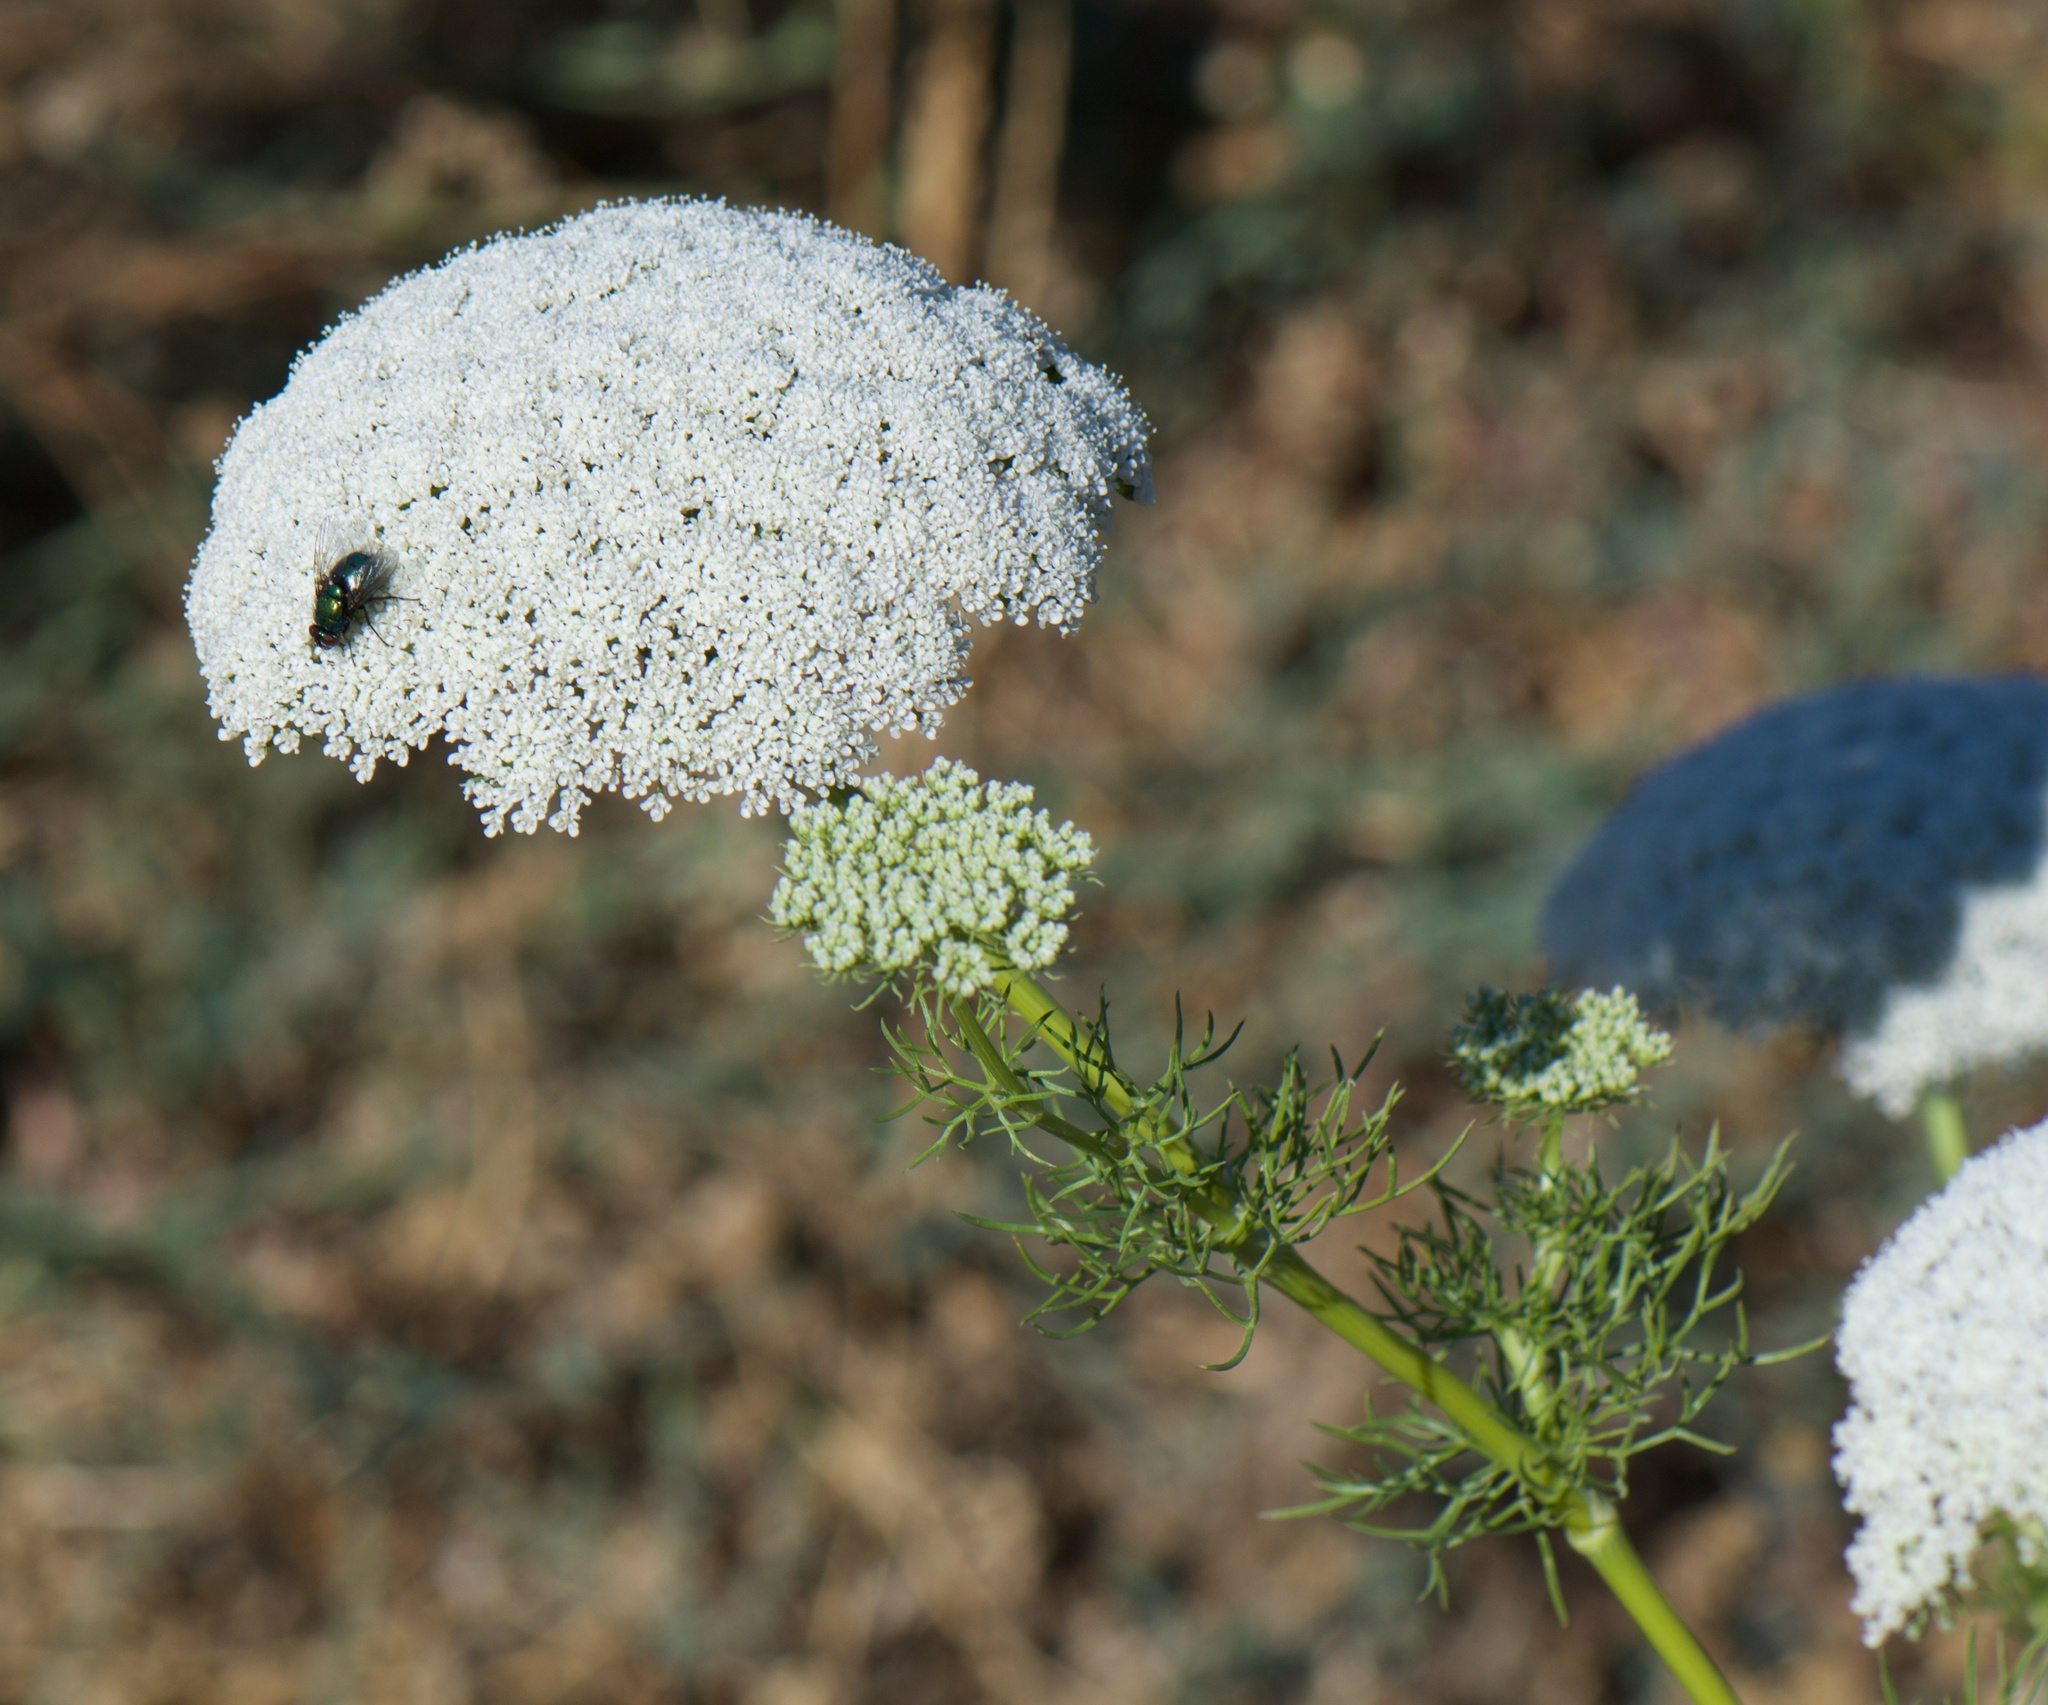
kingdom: Plantae
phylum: Tracheophyta
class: Magnoliopsida
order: Apiales
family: Apiaceae
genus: Visnaga
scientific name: Visnaga daucoides
